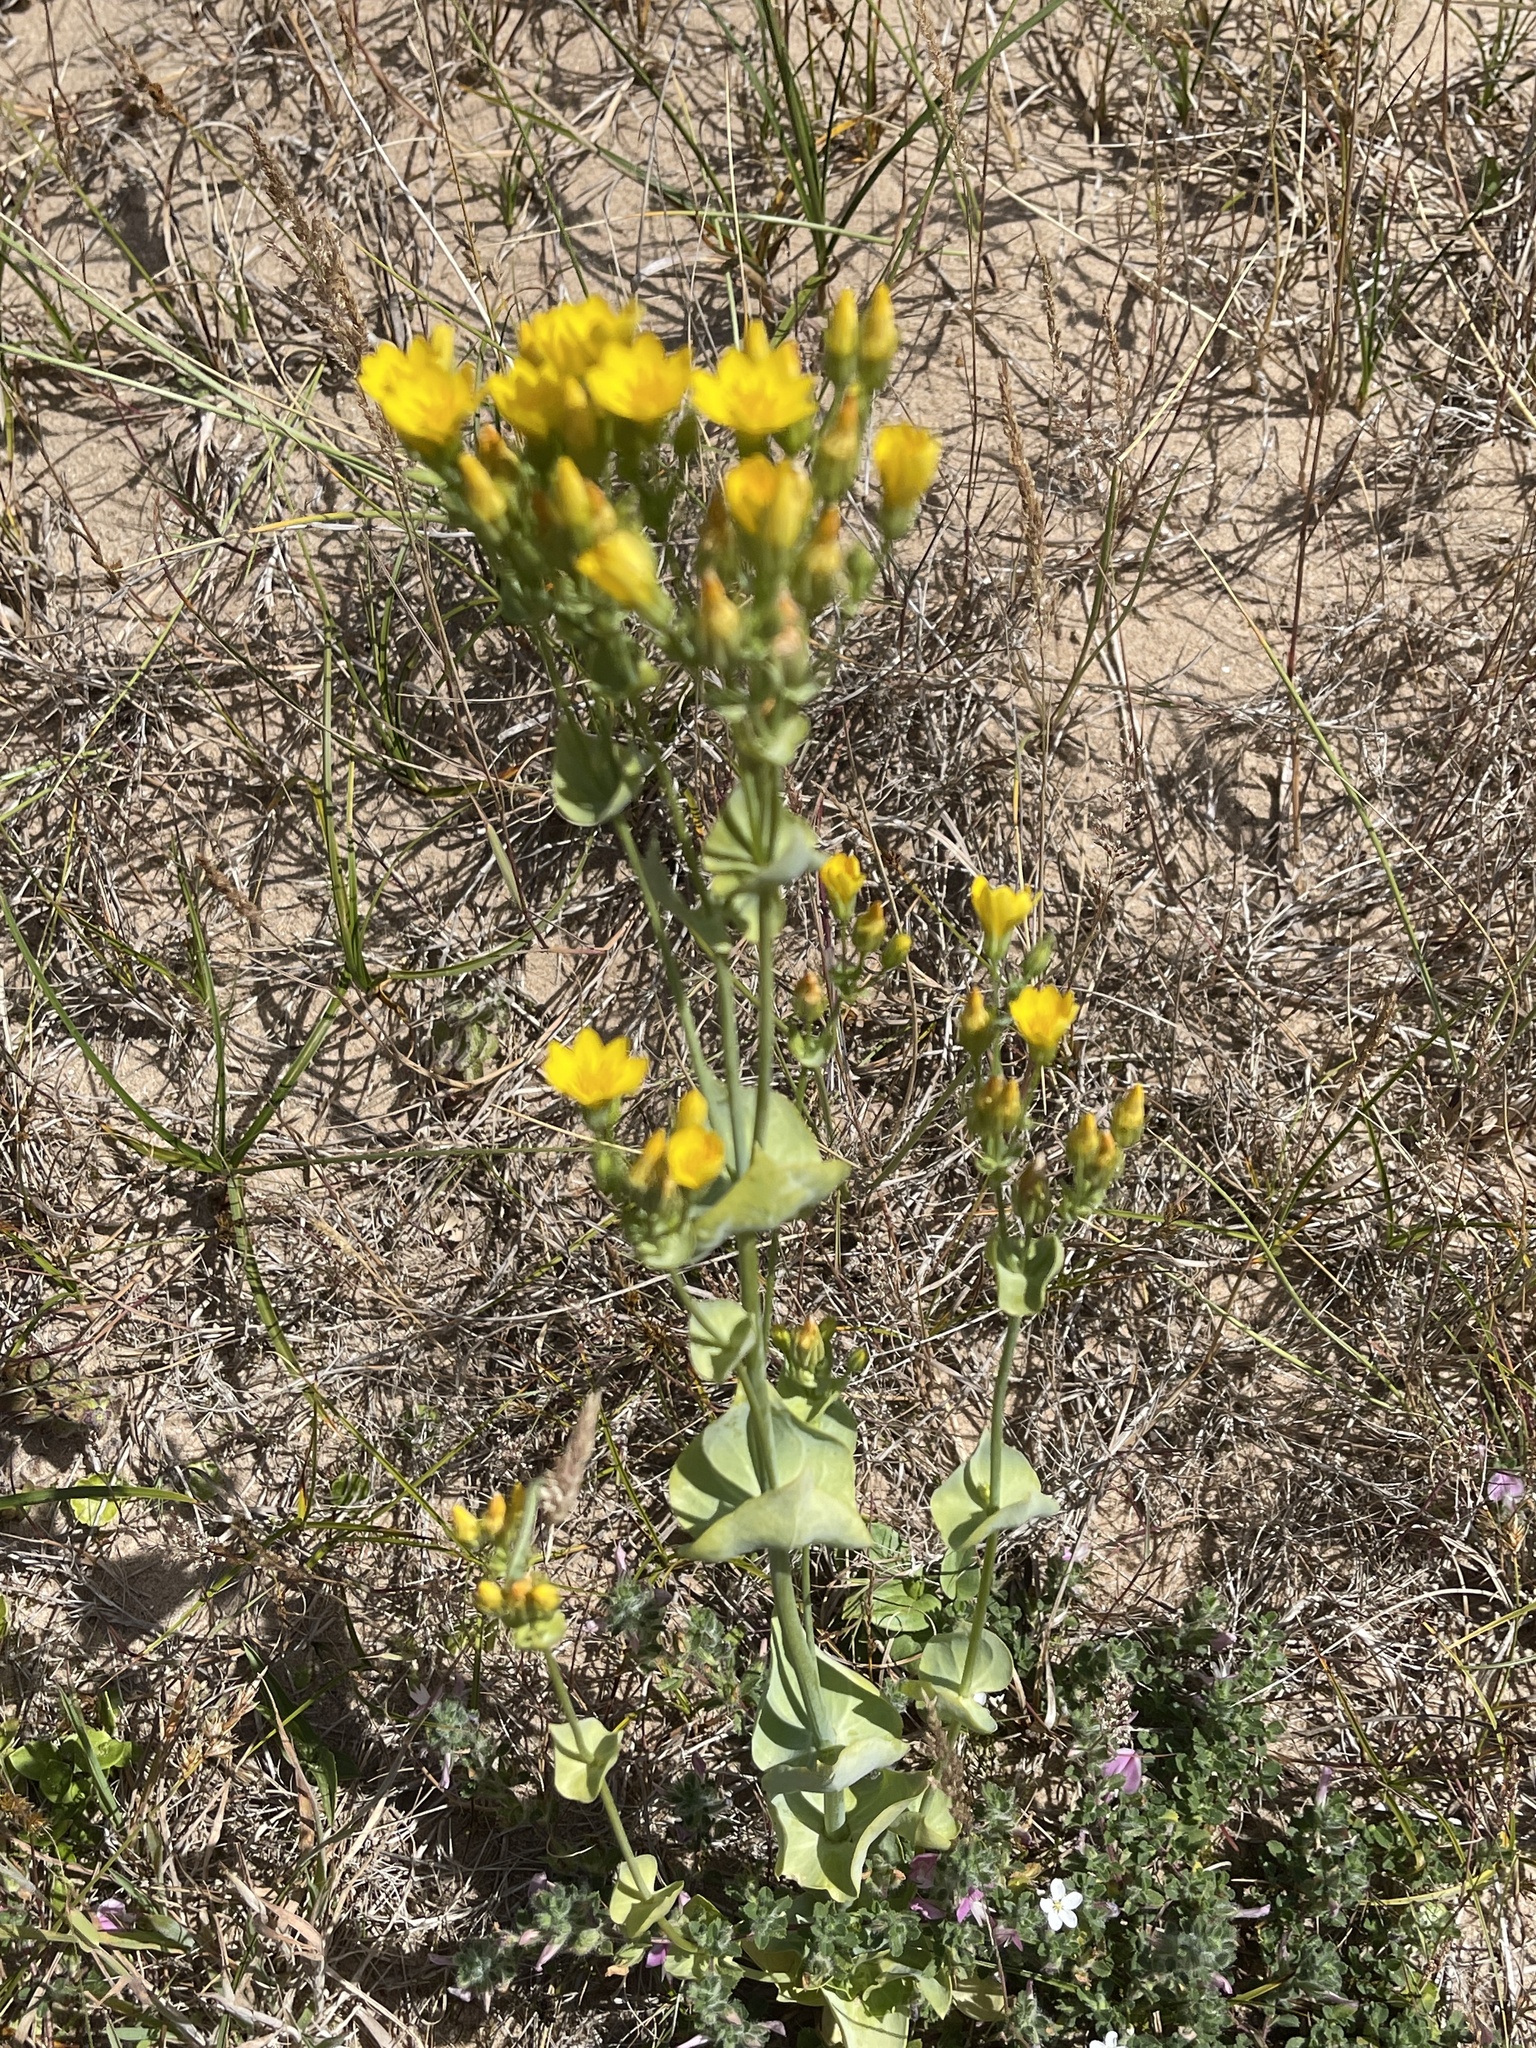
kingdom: Plantae
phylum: Tracheophyta
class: Magnoliopsida
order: Gentianales
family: Gentianaceae
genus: Blackstonia
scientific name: Blackstonia perfoliata
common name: Yellow-wort
